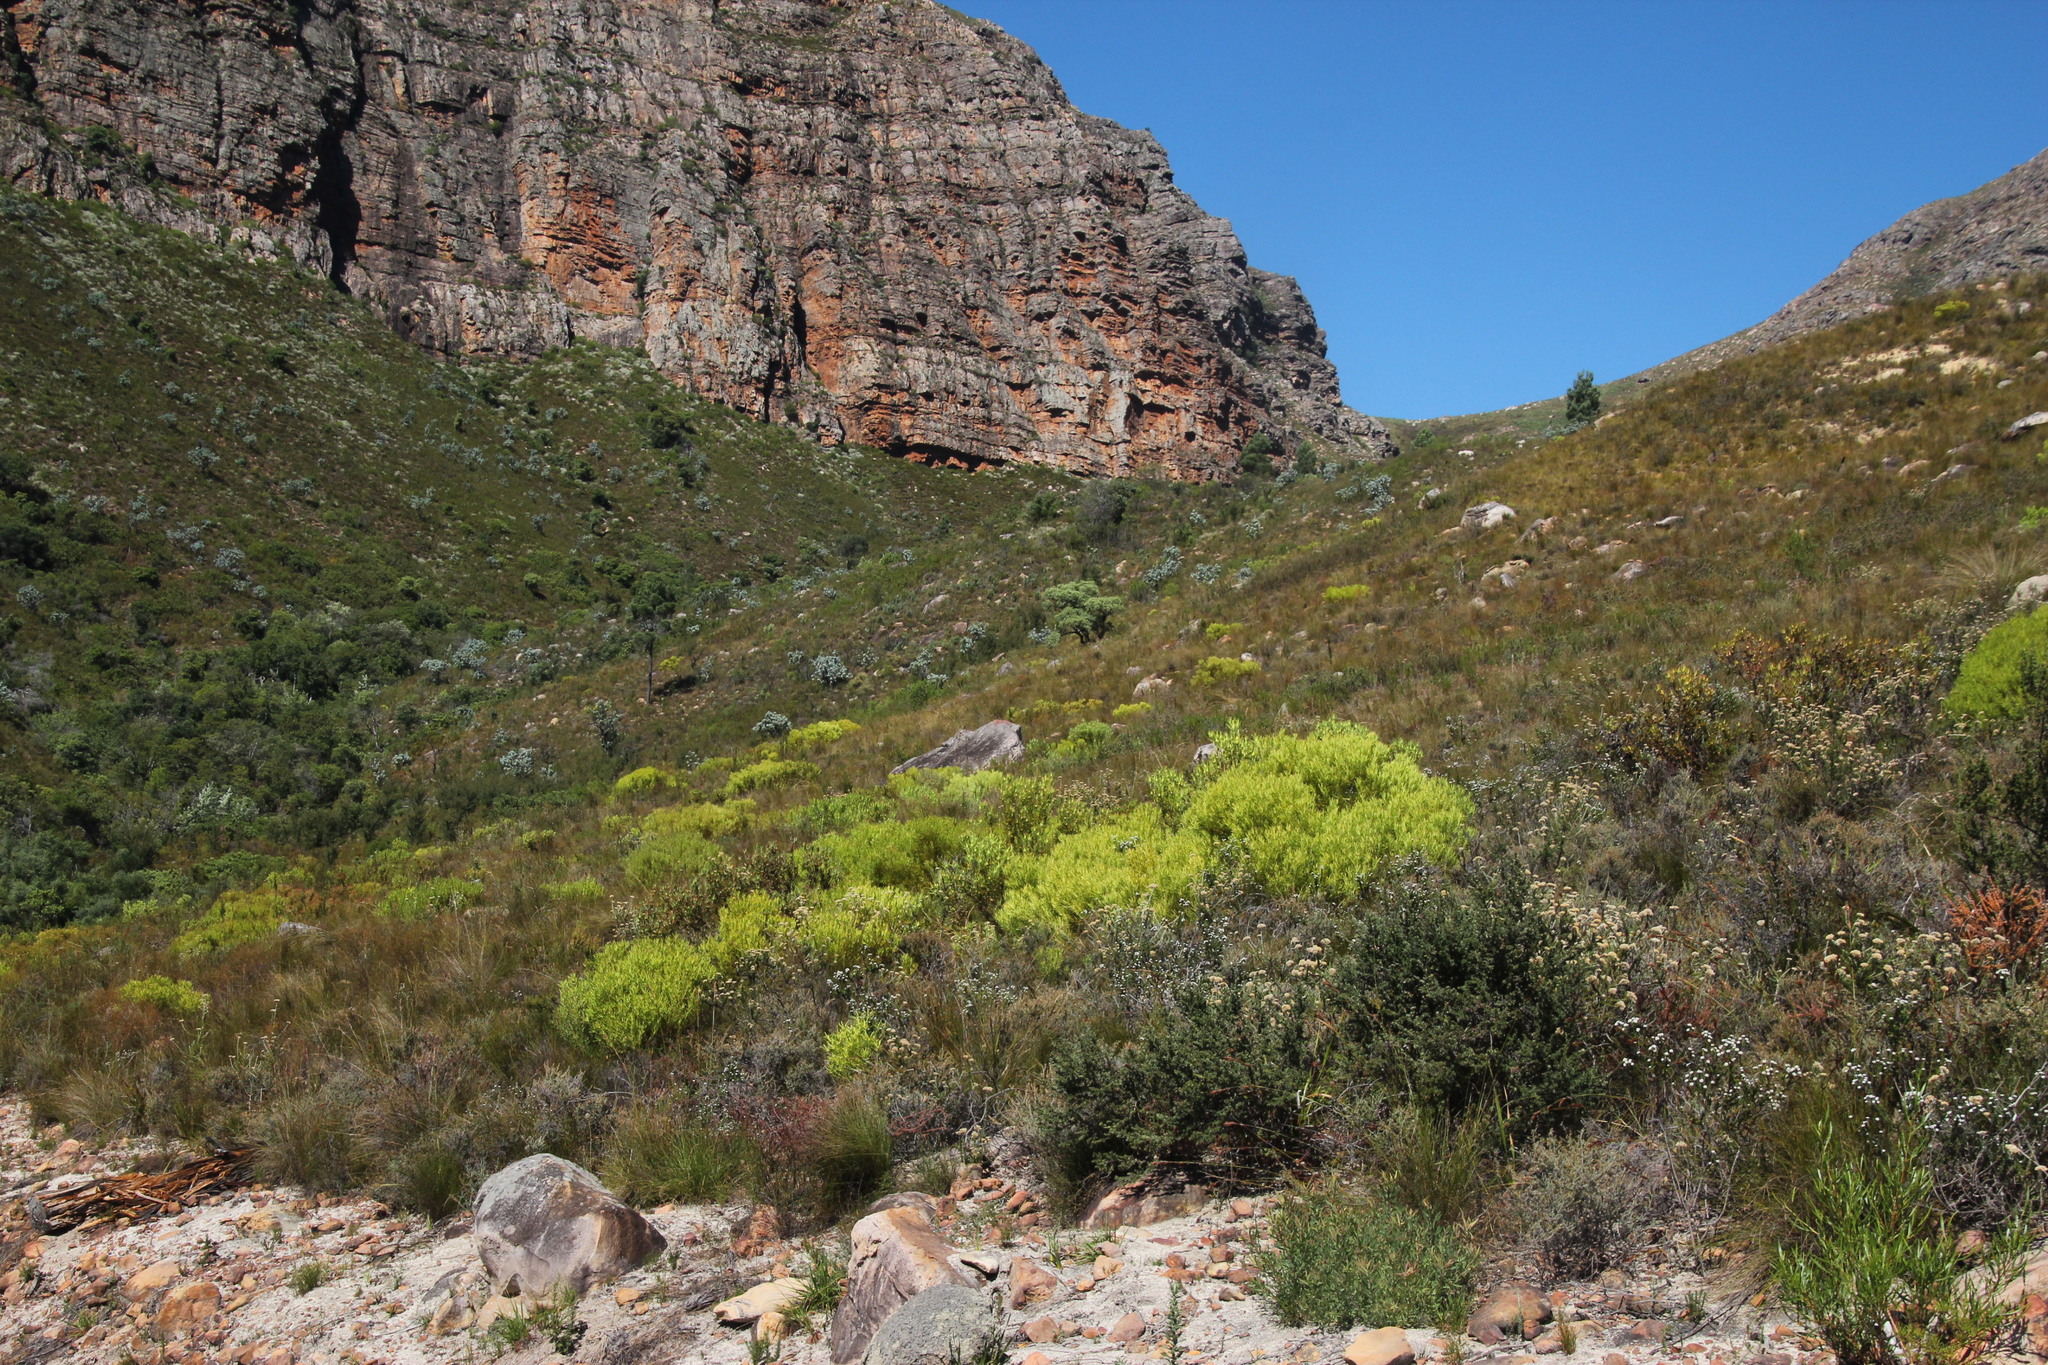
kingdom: Plantae
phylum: Tracheophyta
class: Magnoliopsida
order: Proteales
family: Proteaceae
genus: Leucadendron
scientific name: Leucadendron salignum
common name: Common sunshine conebush
